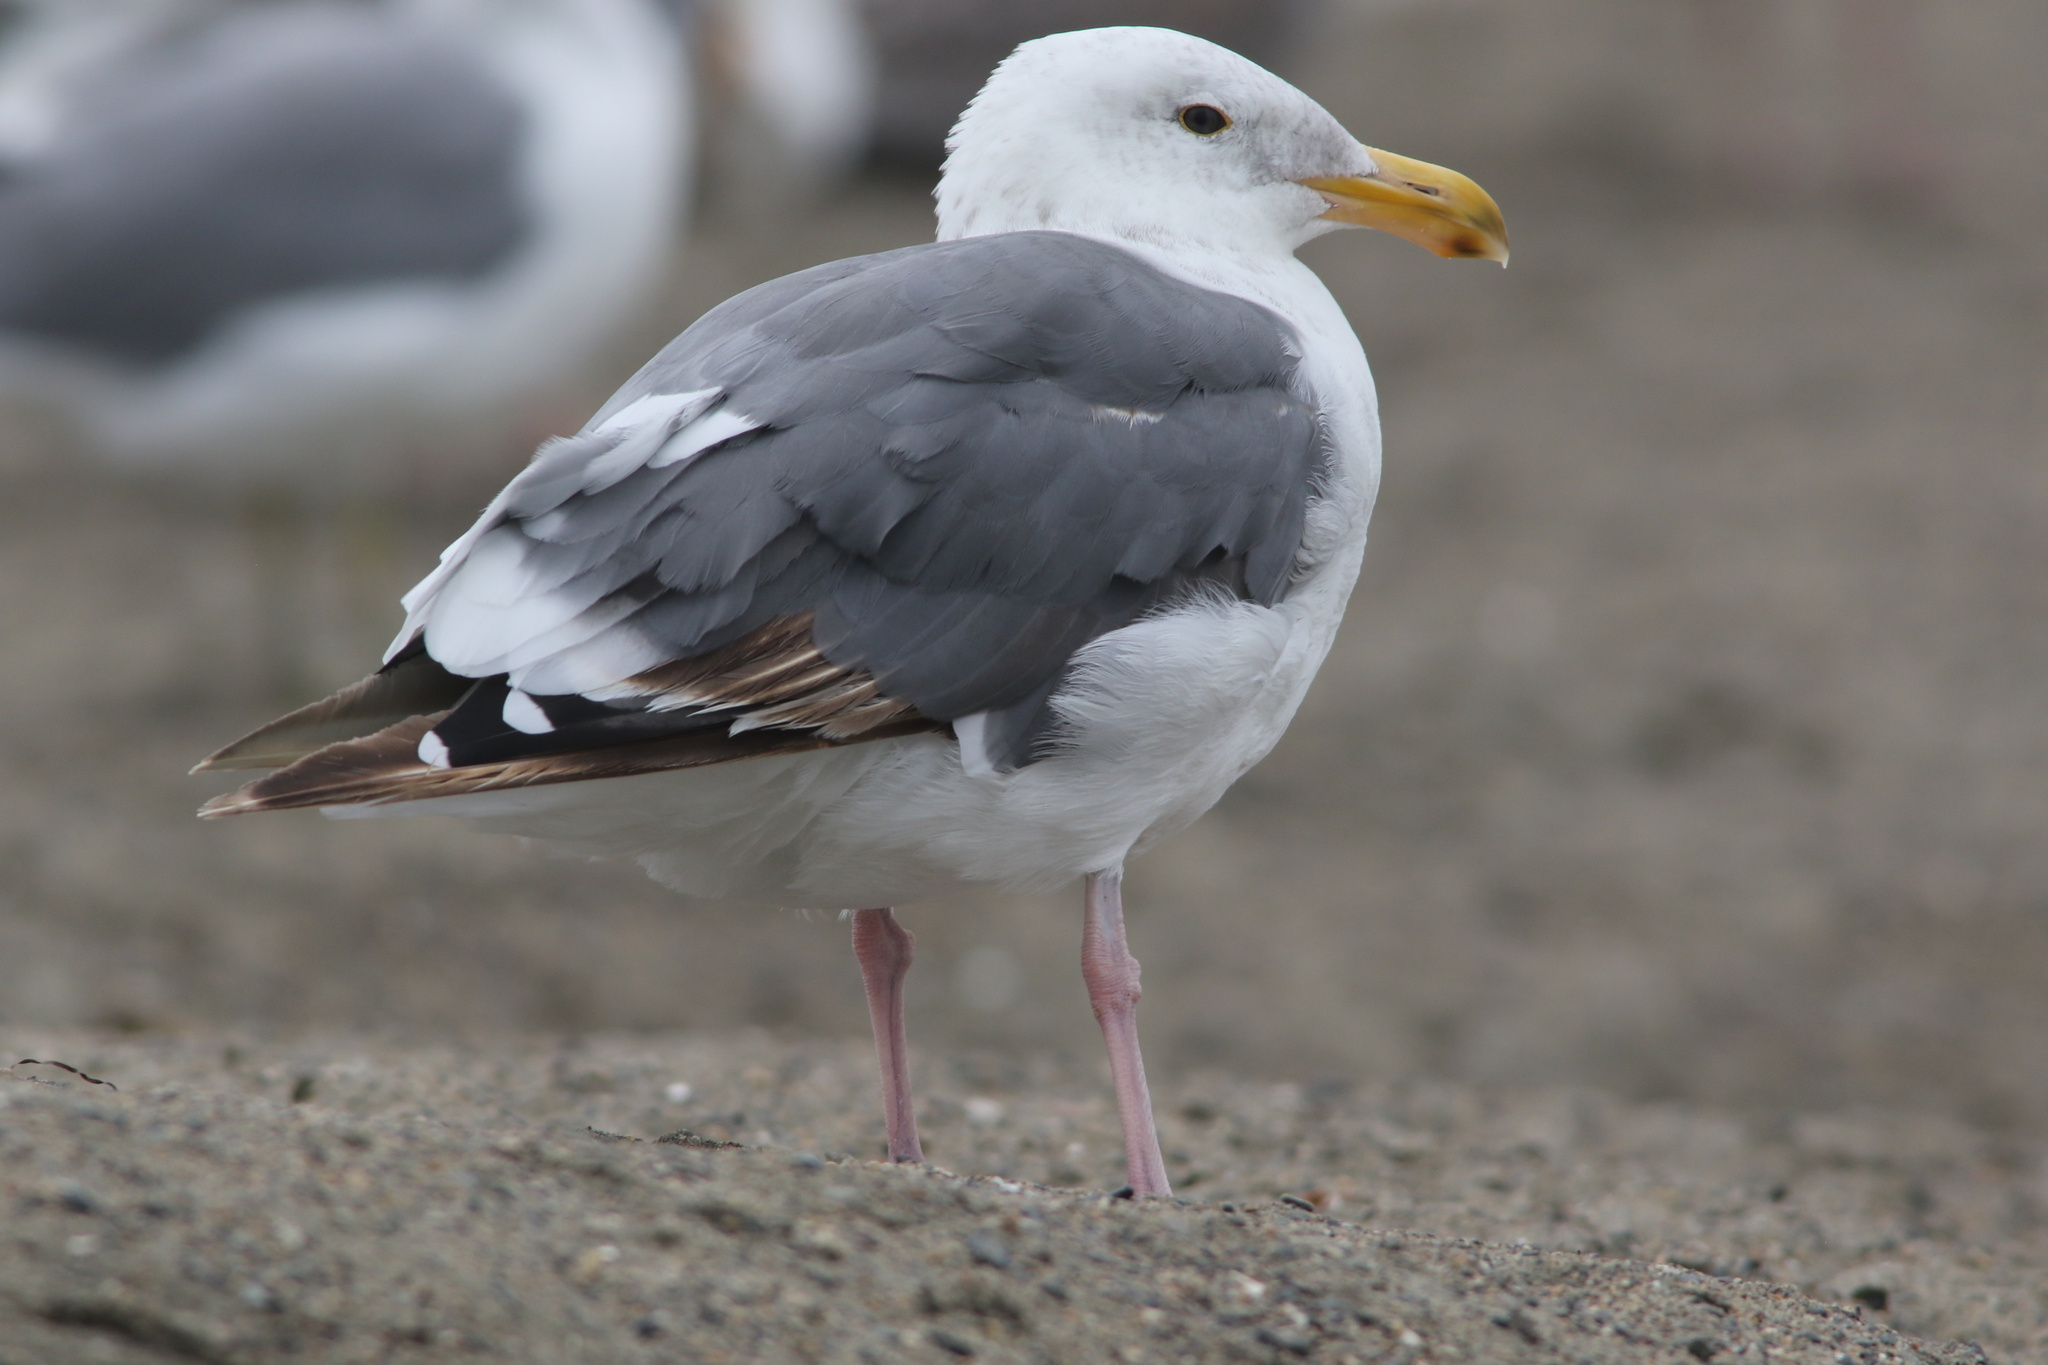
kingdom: Animalia
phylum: Chordata
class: Aves
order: Charadriiformes
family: Laridae
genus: Larus
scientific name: Larus occidentalis
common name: Western gull
